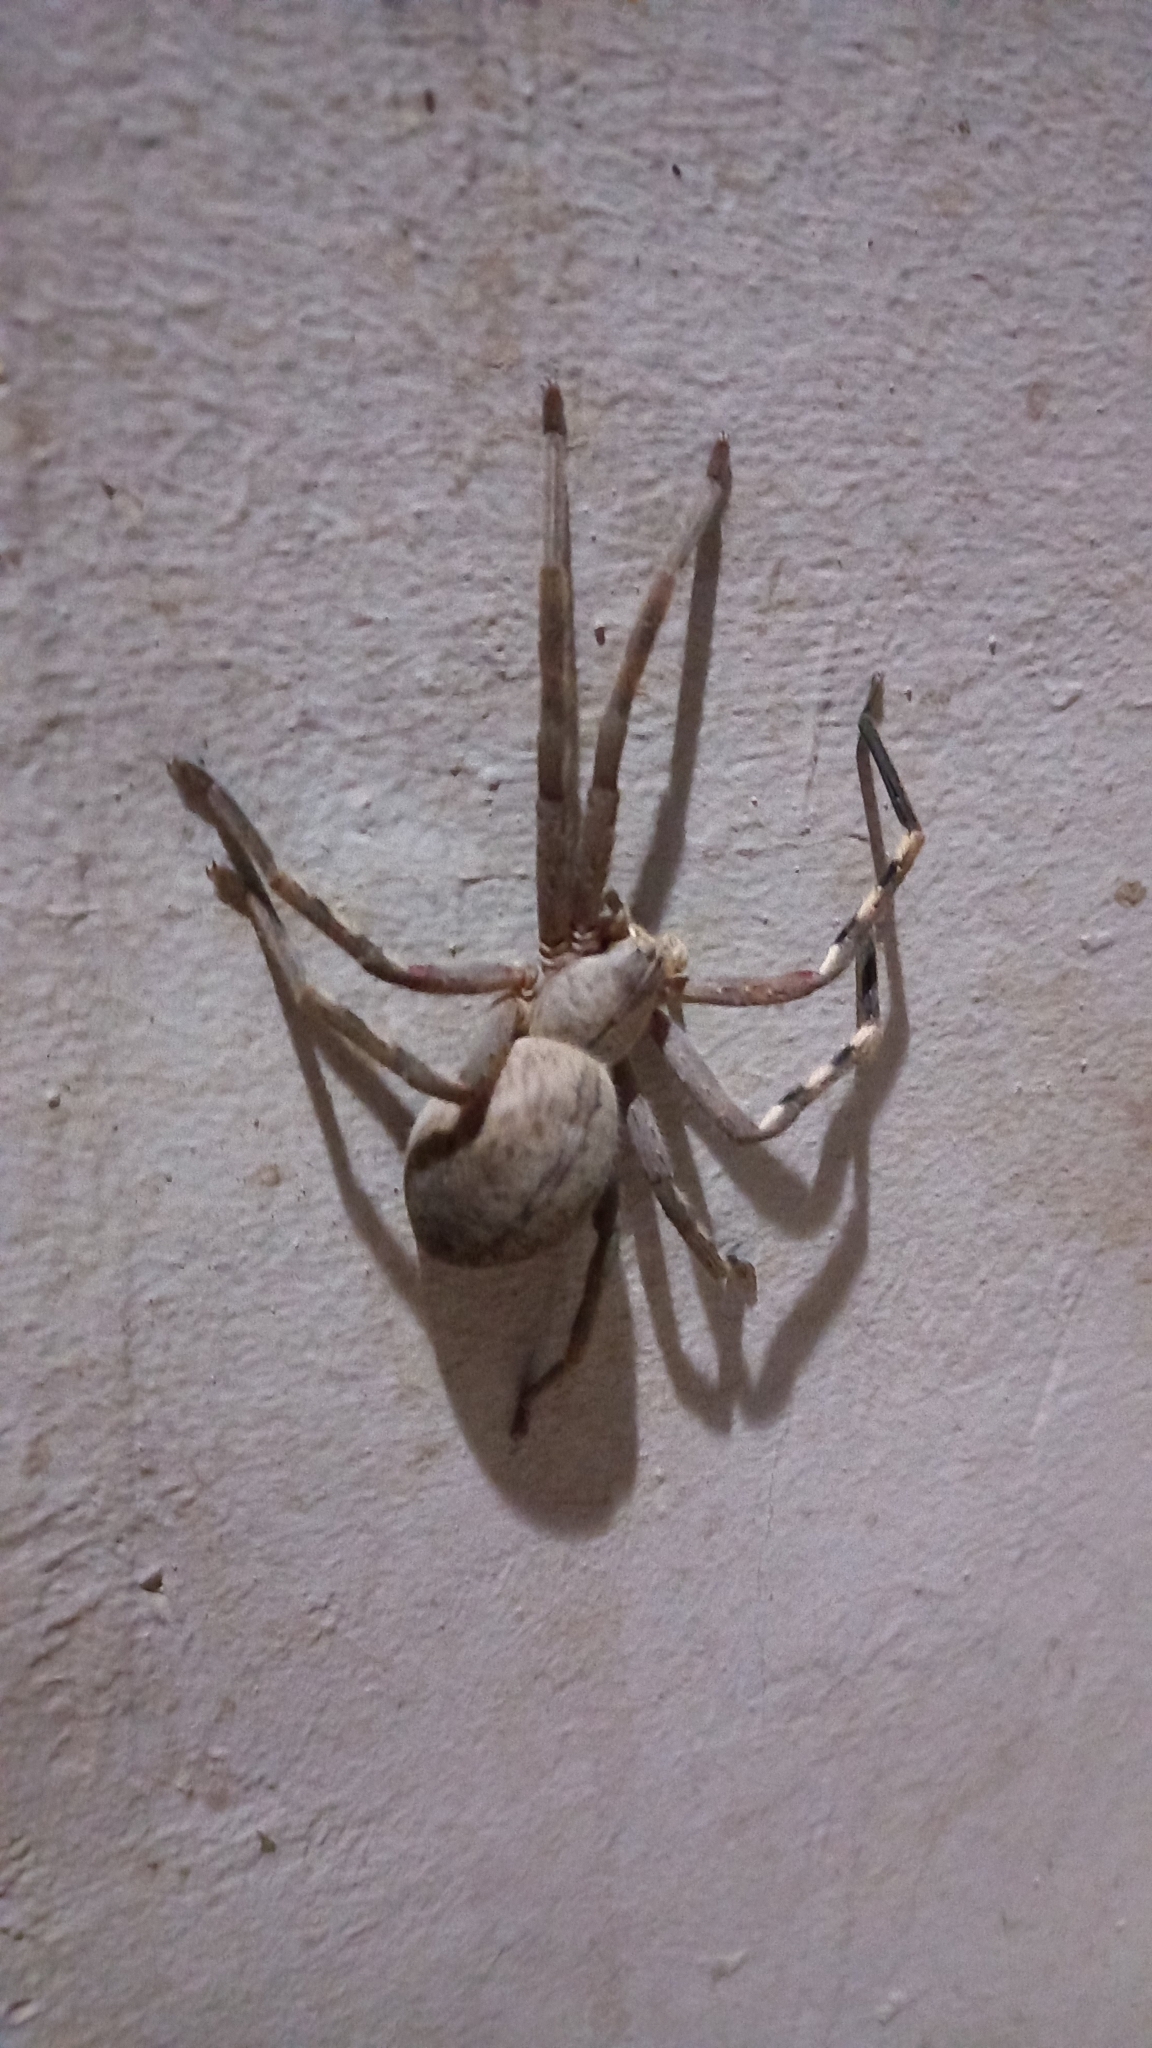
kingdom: Animalia
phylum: Arthropoda
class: Arachnida
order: Araneae
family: Sparassidae
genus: Palystes
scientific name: Palystes superciliosus
